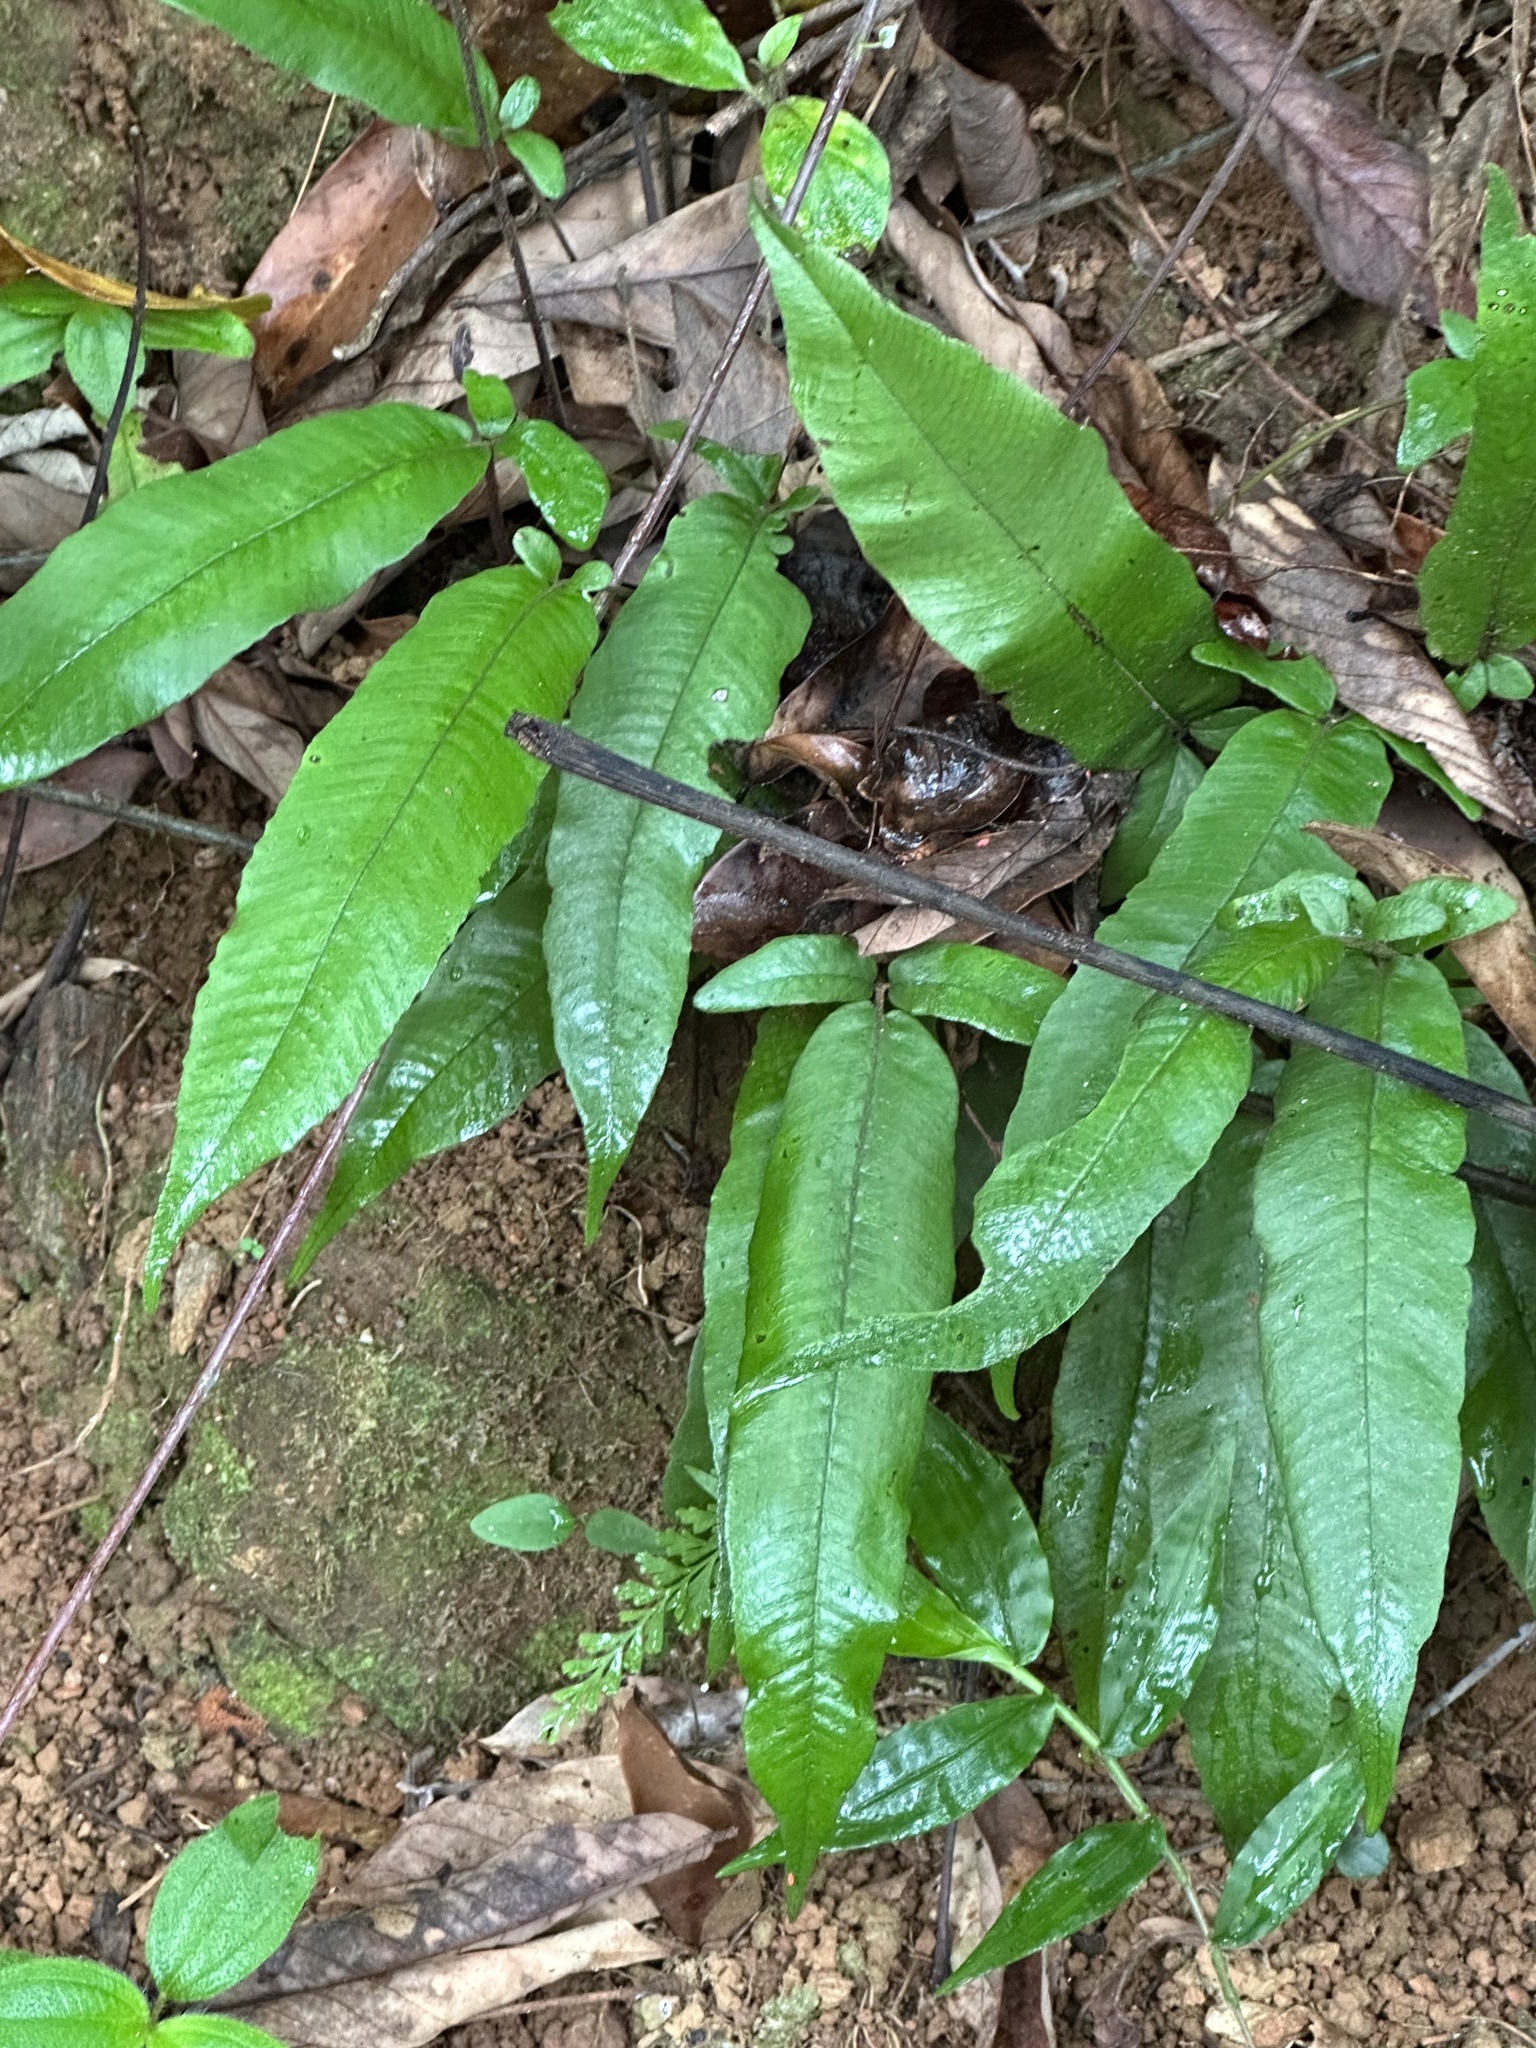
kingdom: Plantae
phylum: Tracheophyta
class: Polypodiopsida
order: Polypodiales
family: Thelypteridaceae
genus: Grypothrix
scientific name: Grypothrix triphylla
